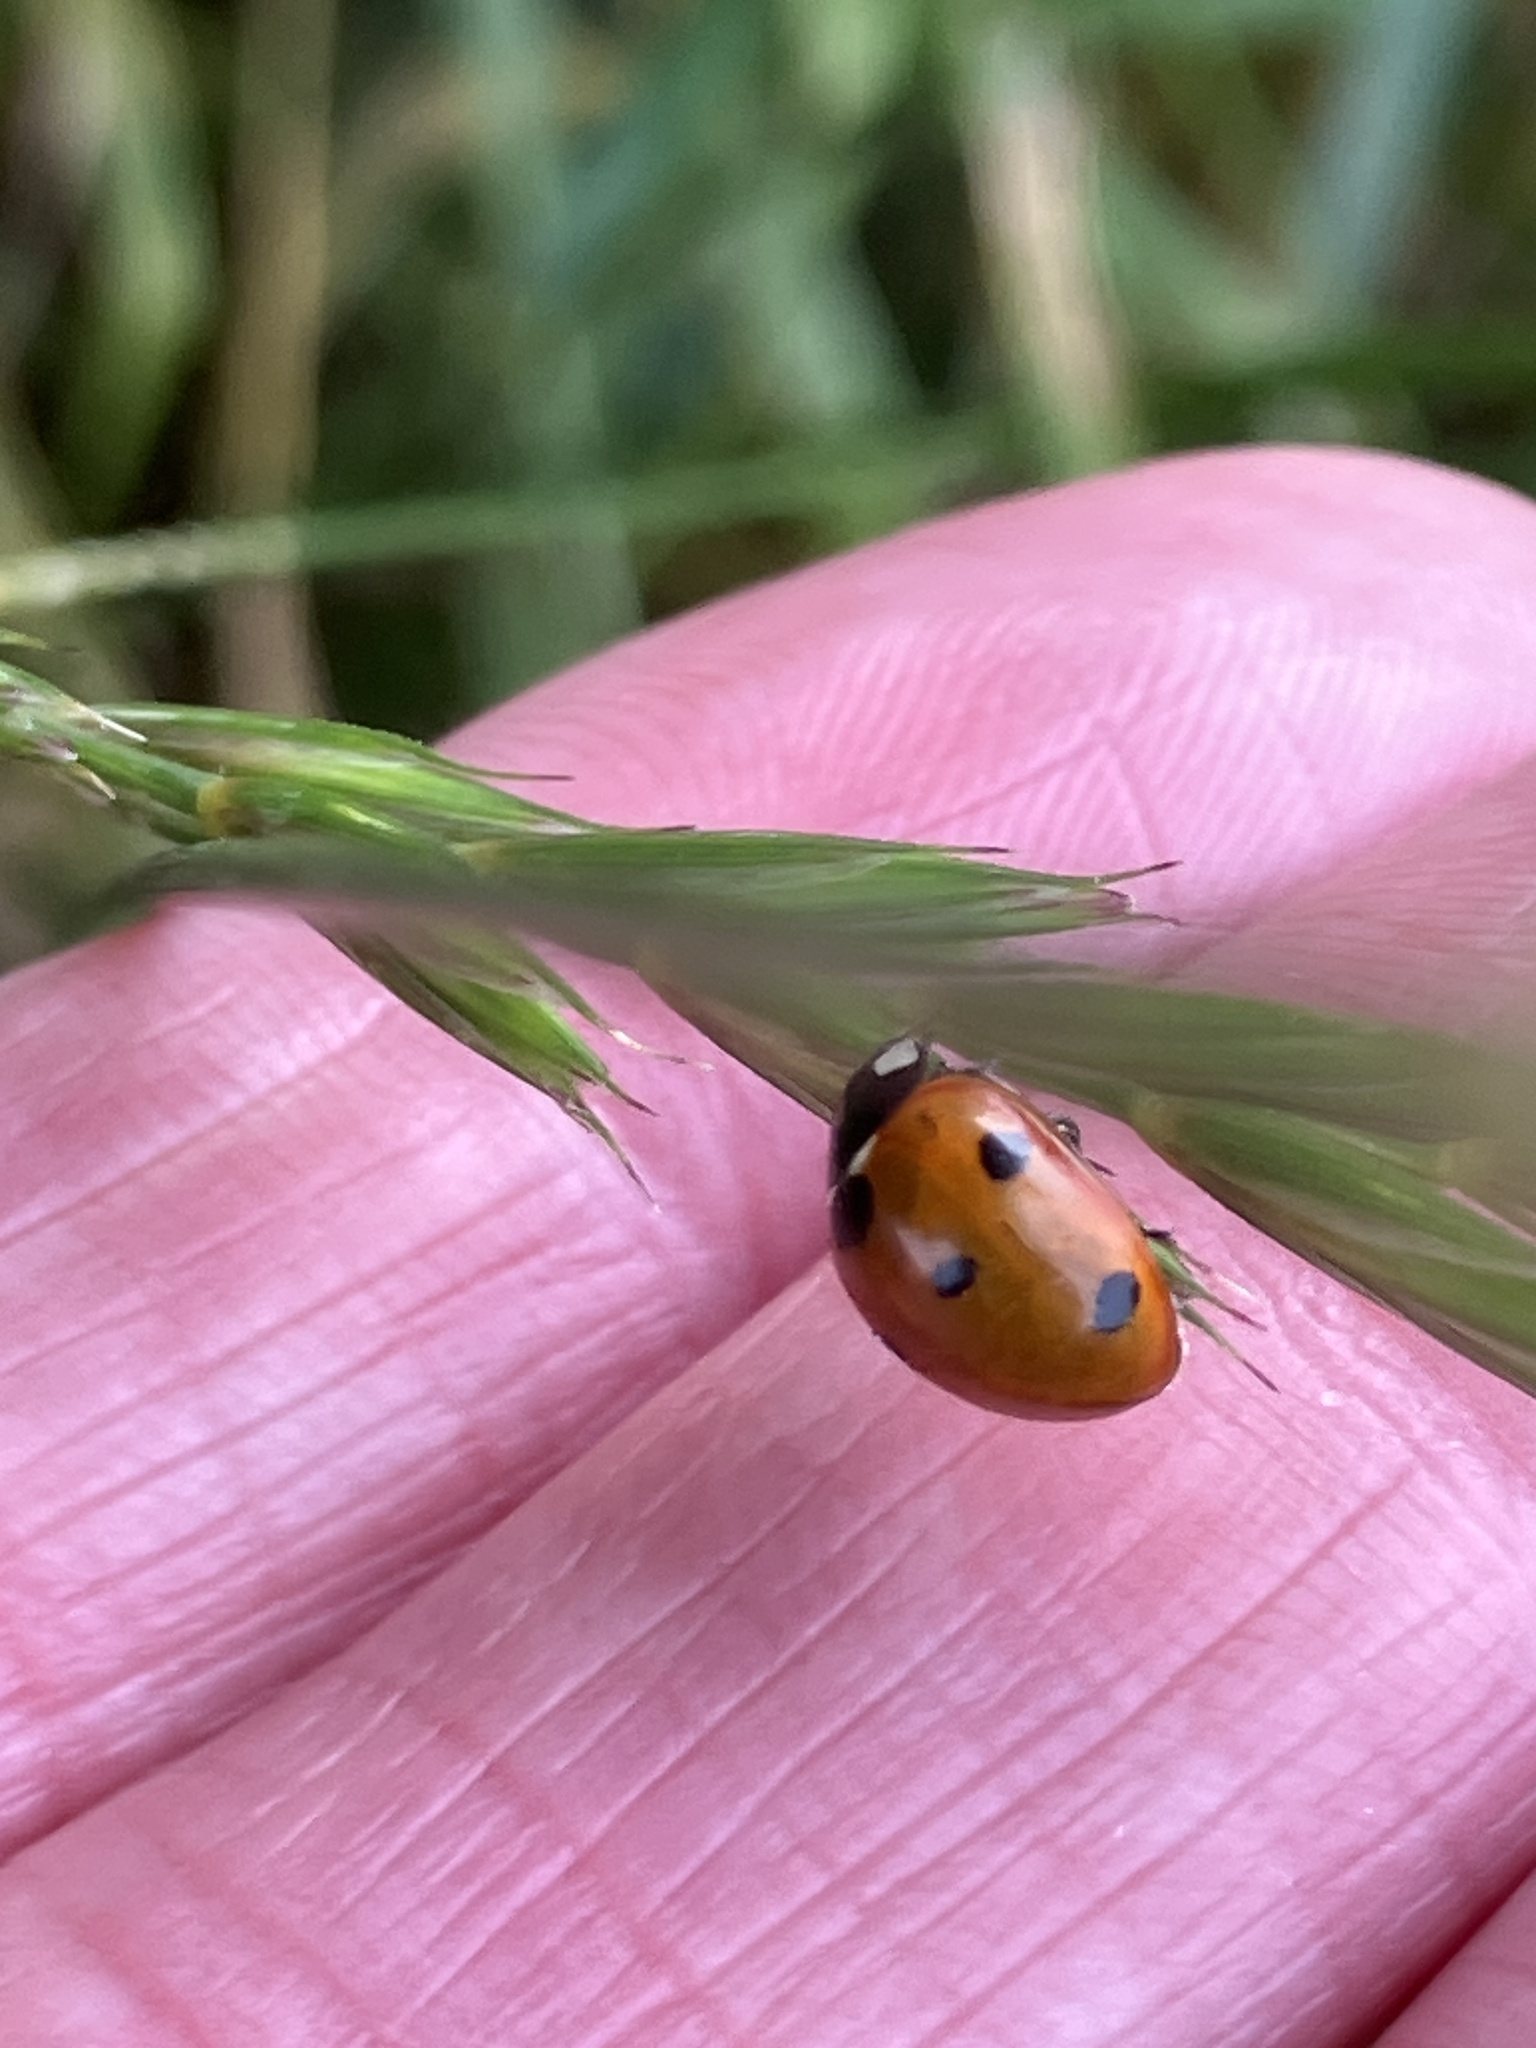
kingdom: Animalia
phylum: Arthropoda
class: Insecta
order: Coleoptera
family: Coccinellidae
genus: Coccinella
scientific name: Coccinella septempunctata
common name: Sevenspotted lady beetle
